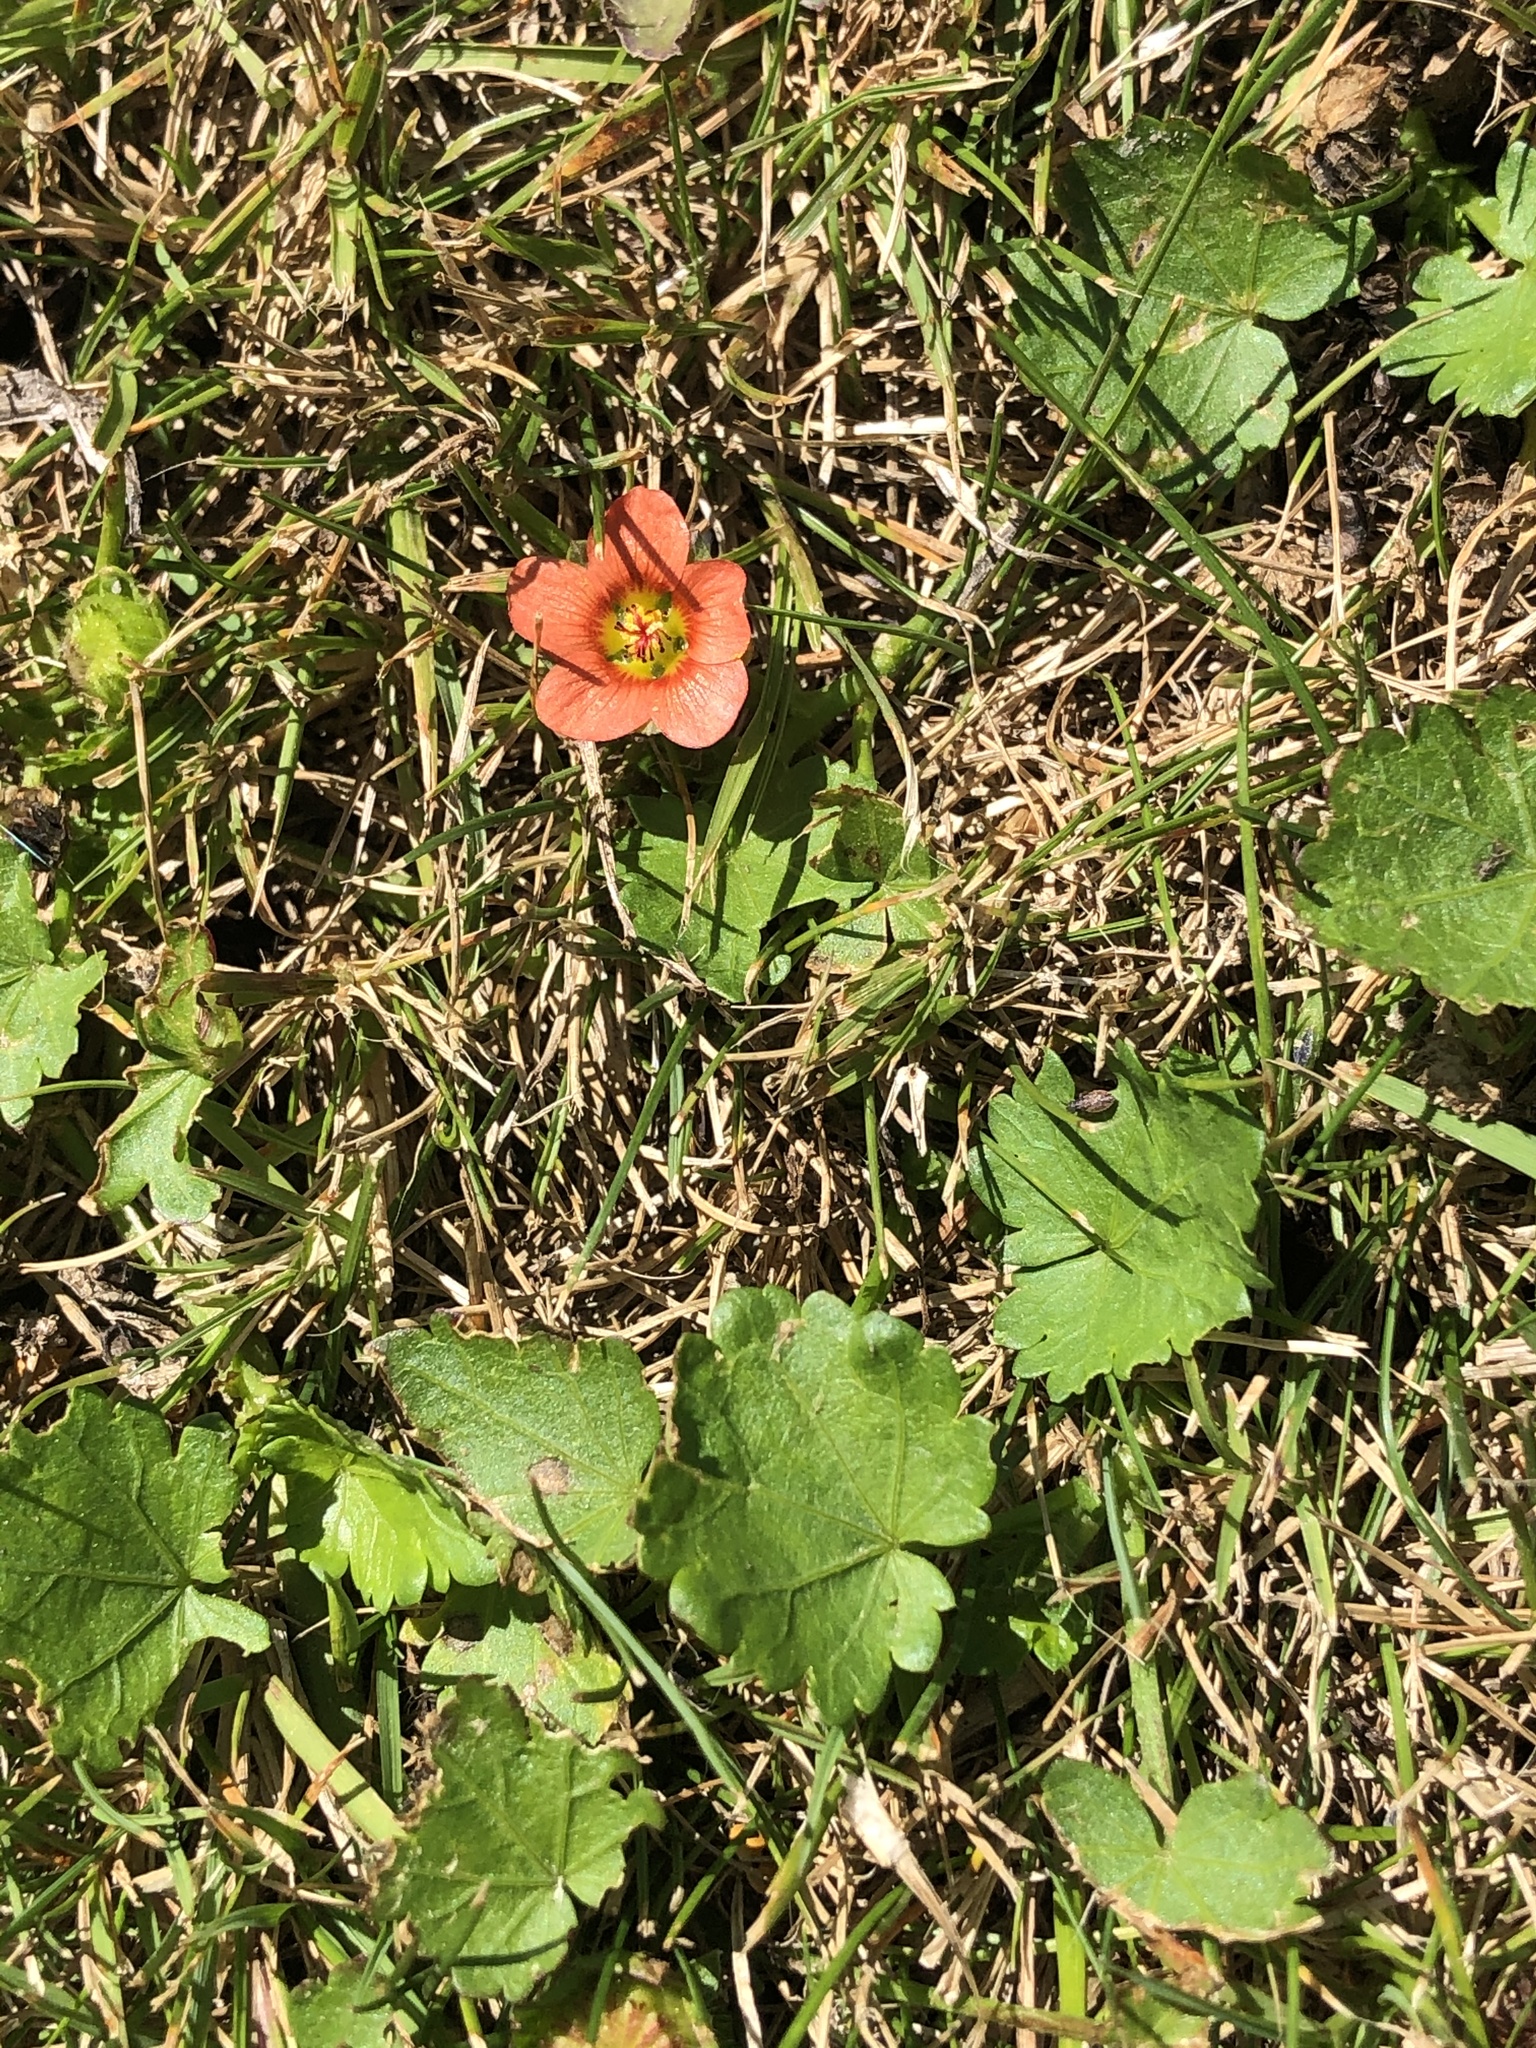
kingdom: Plantae
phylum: Tracheophyta
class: Magnoliopsida
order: Malvales
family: Malvaceae
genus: Modiola
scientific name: Modiola caroliniana
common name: Carolina bristlemallow
